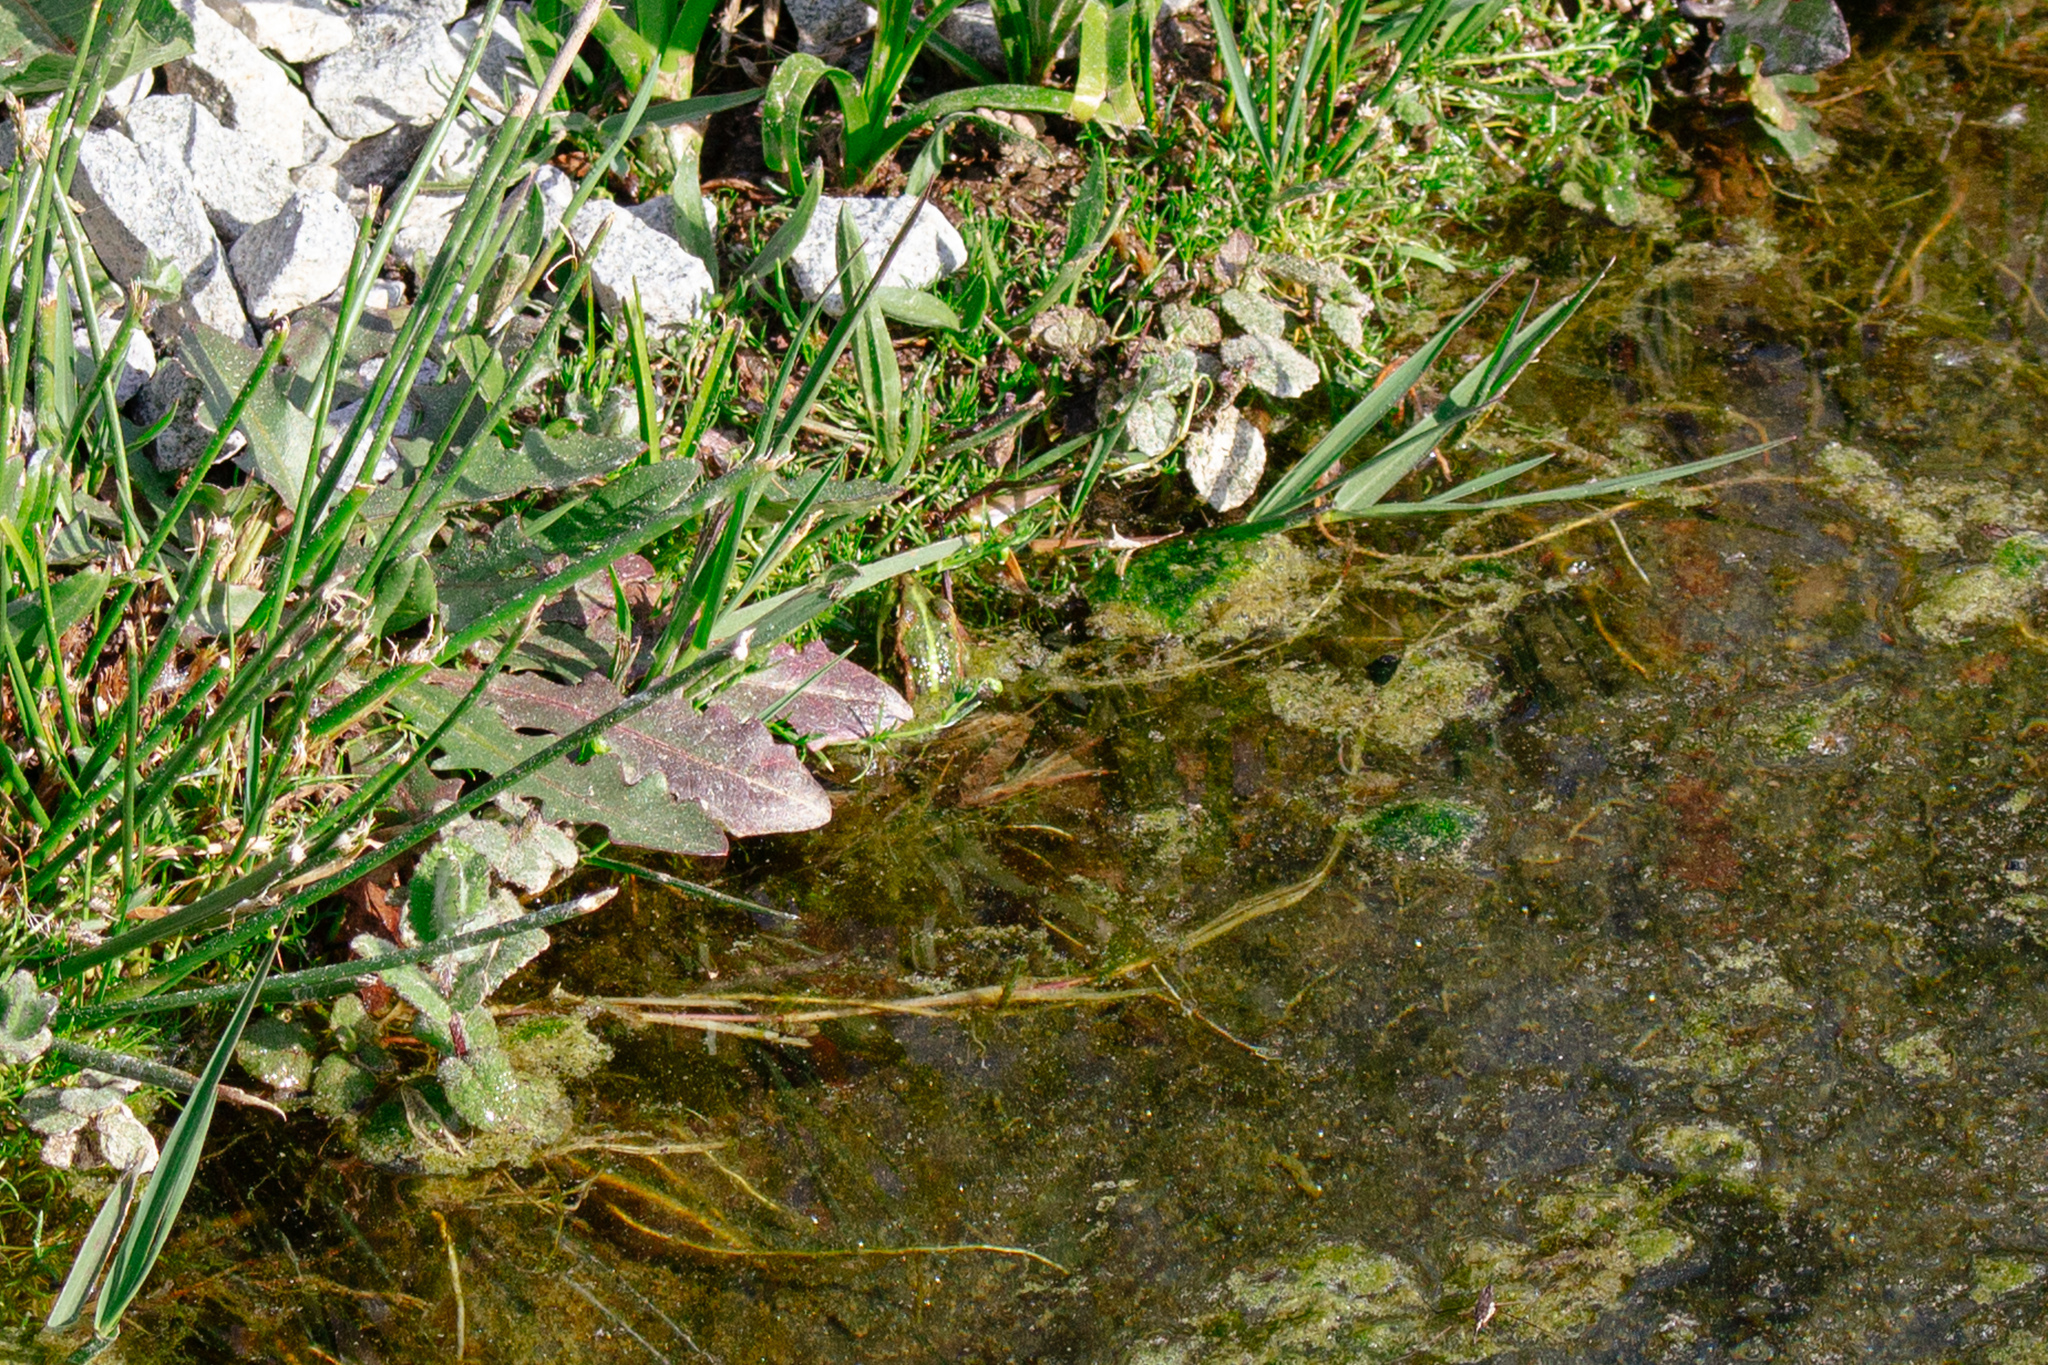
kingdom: Animalia
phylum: Chordata
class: Amphibia
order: Anura
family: Ranidae
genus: Pelophylax
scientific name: Pelophylax perezi
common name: Perez's frog
